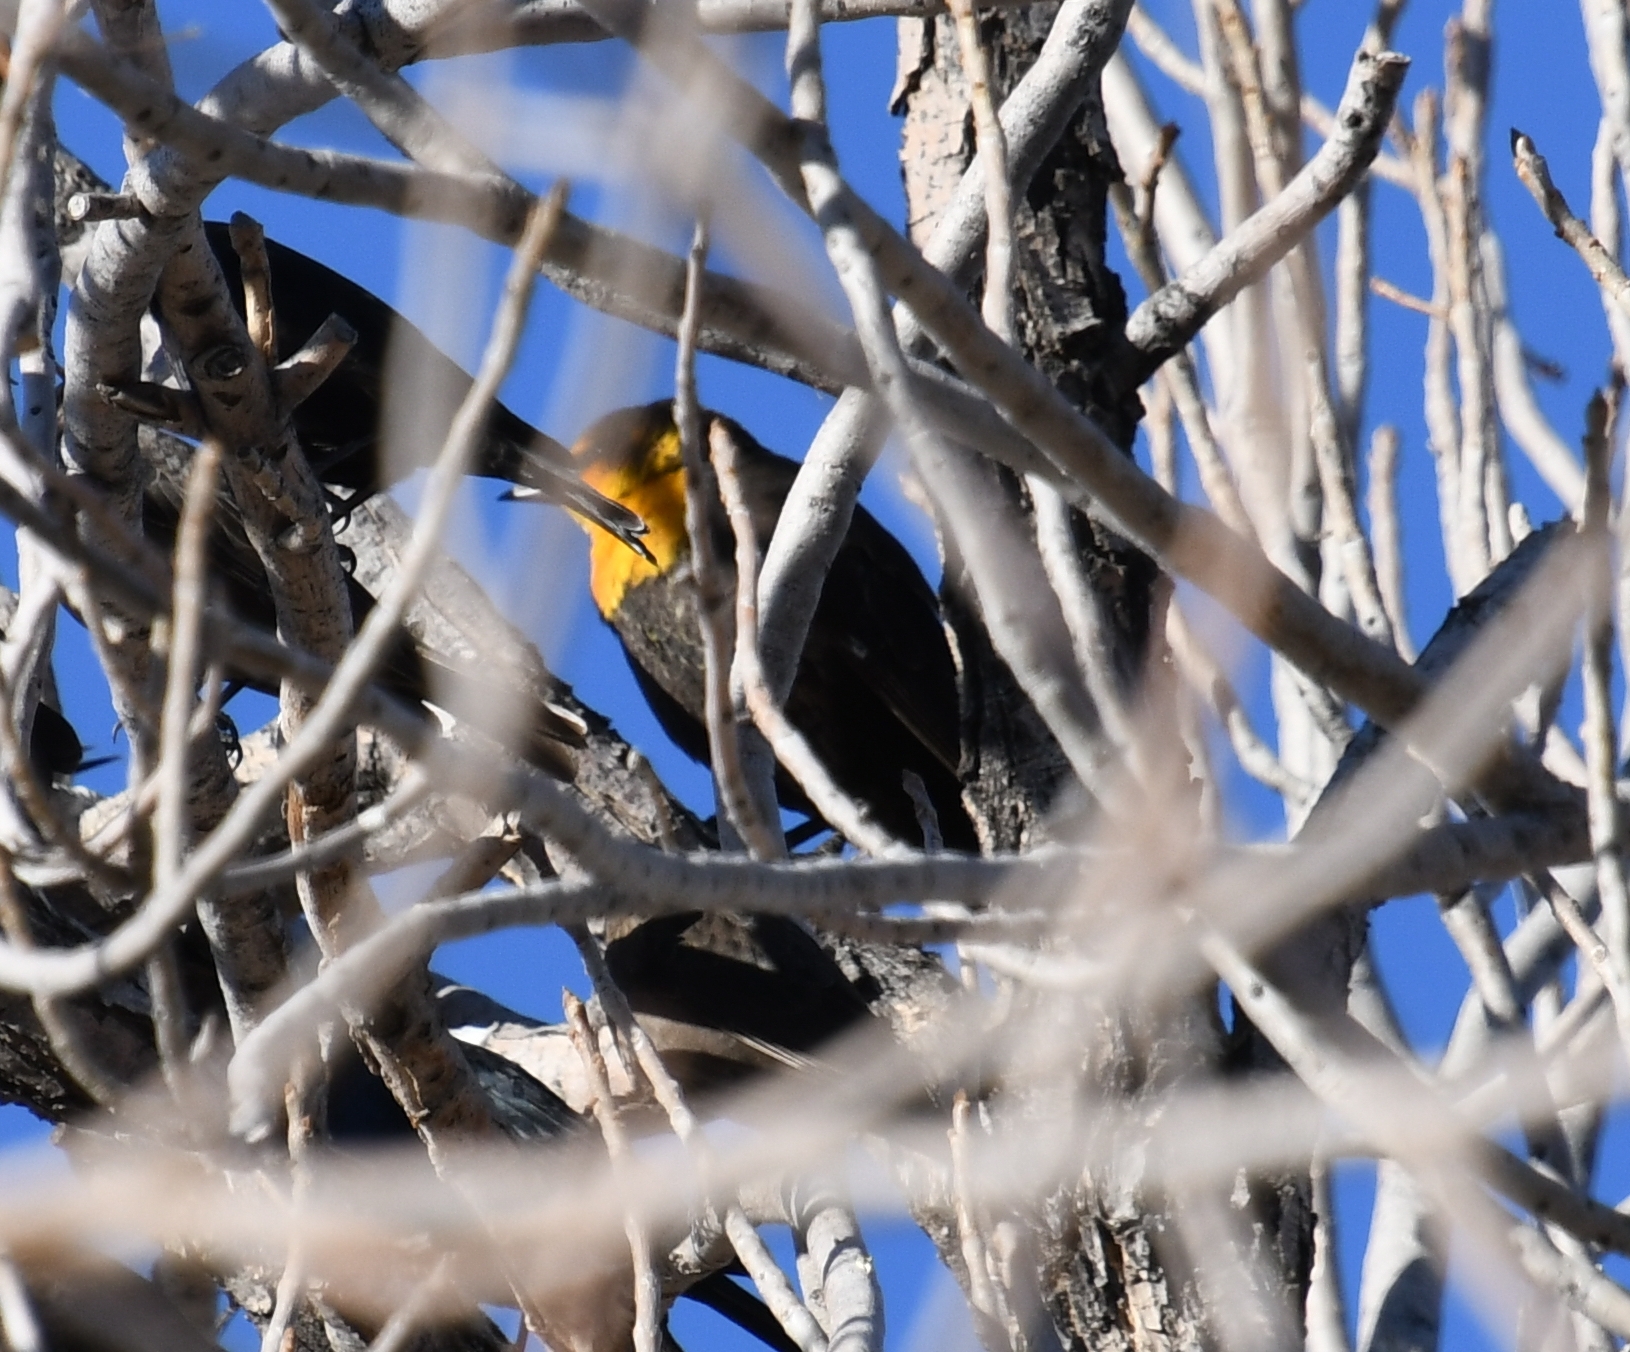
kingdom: Animalia
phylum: Chordata
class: Aves
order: Passeriformes
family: Icteridae
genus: Xanthocephalus
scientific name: Xanthocephalus xanthocephalus
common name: Yellow-headed blackbird
